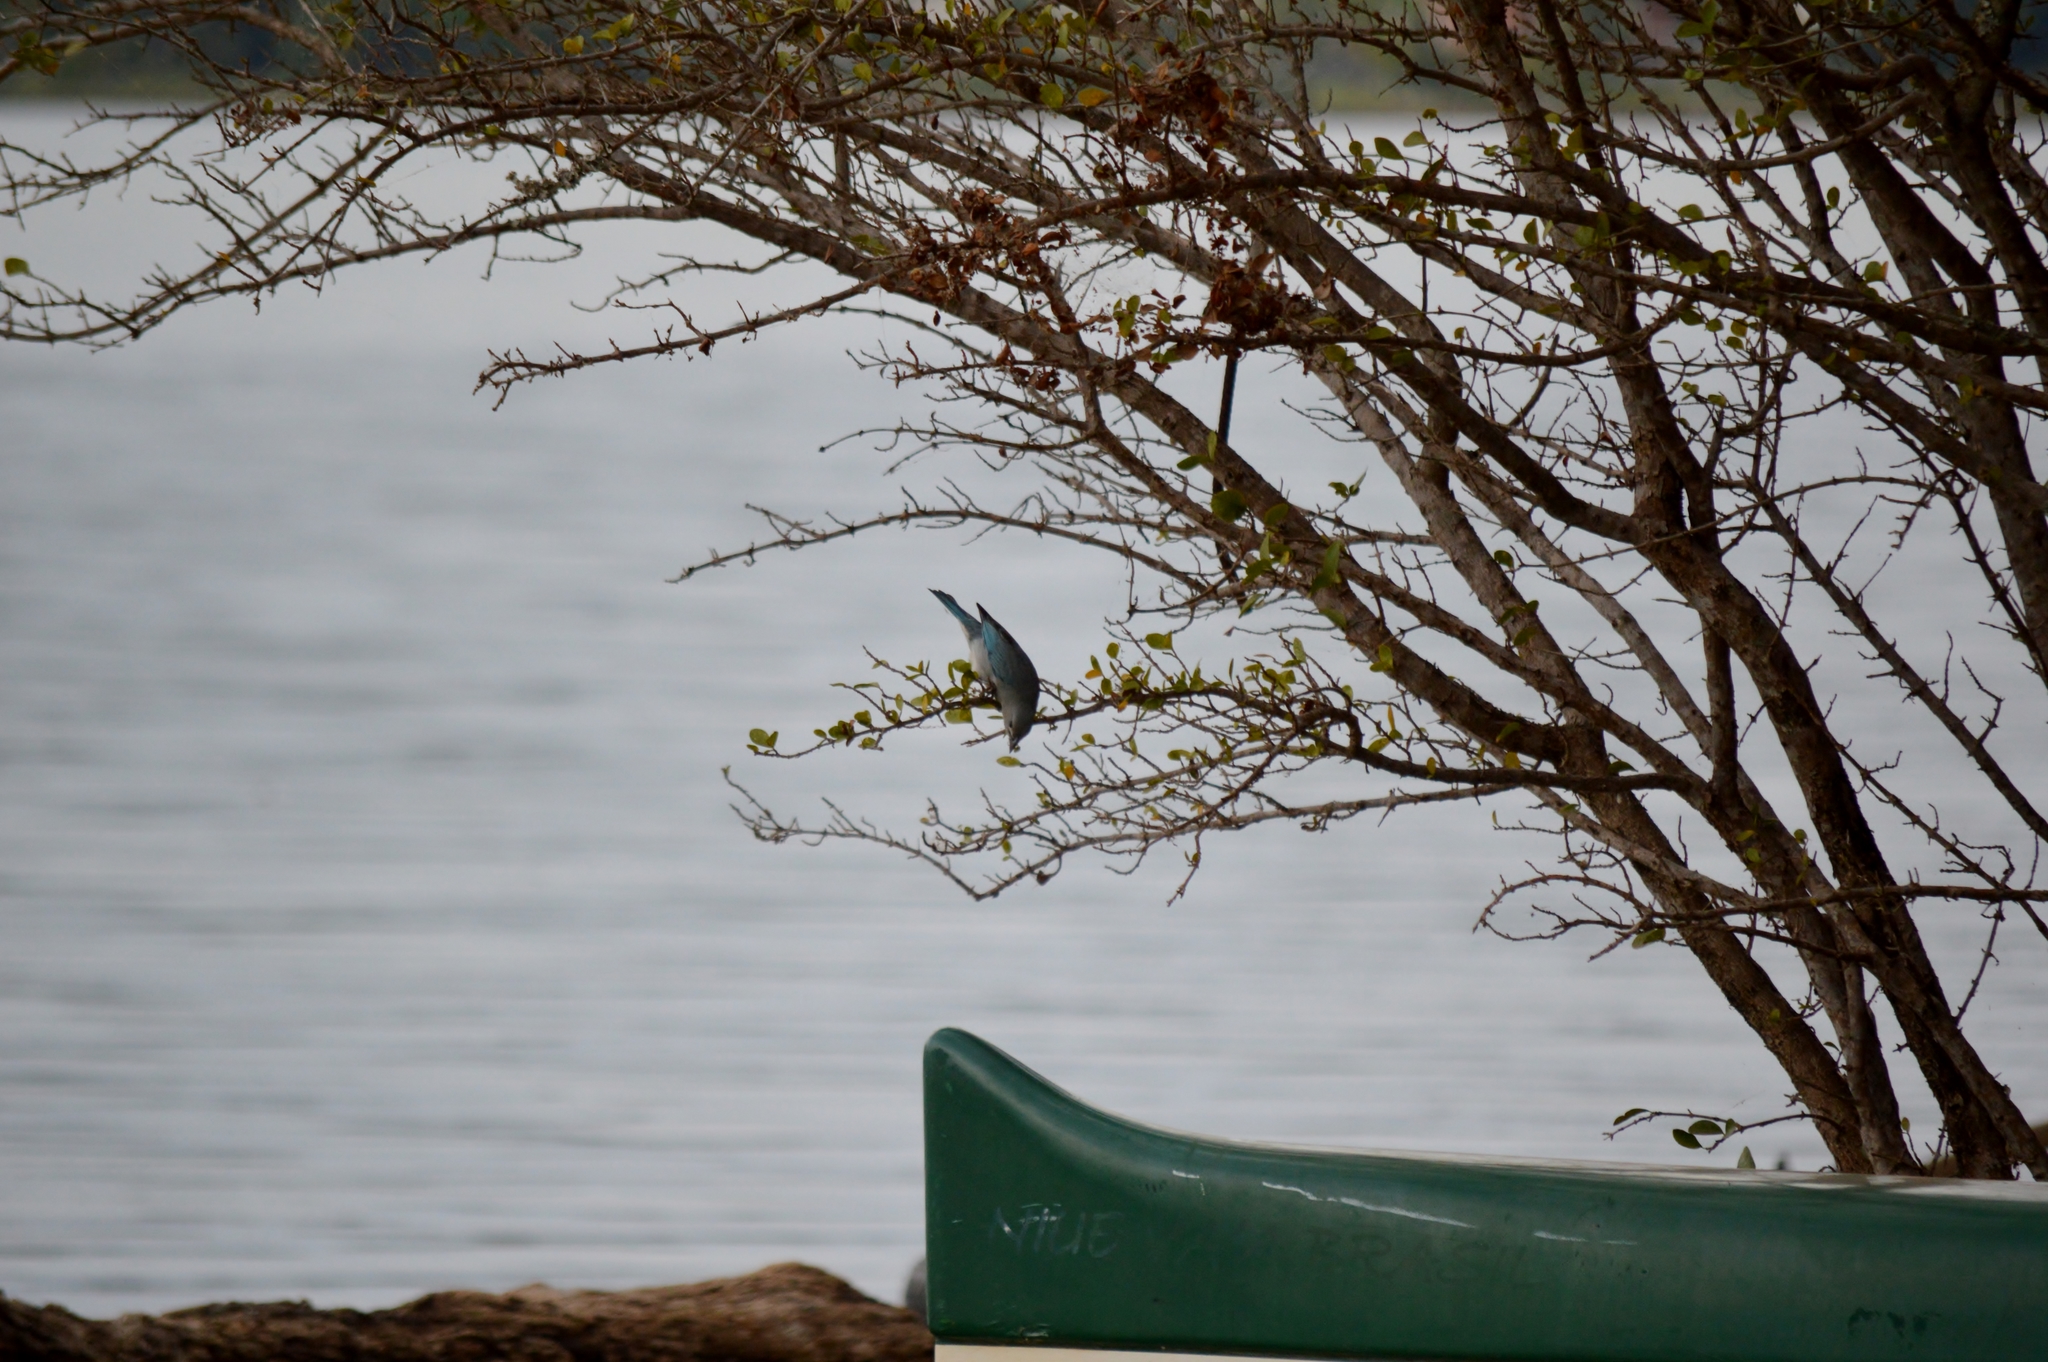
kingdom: Animalia
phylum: Chordata
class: Aves
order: Passeriformes
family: Thraupidae
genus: Thraupis
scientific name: Thraupis sayaca
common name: Sayaca tanager
